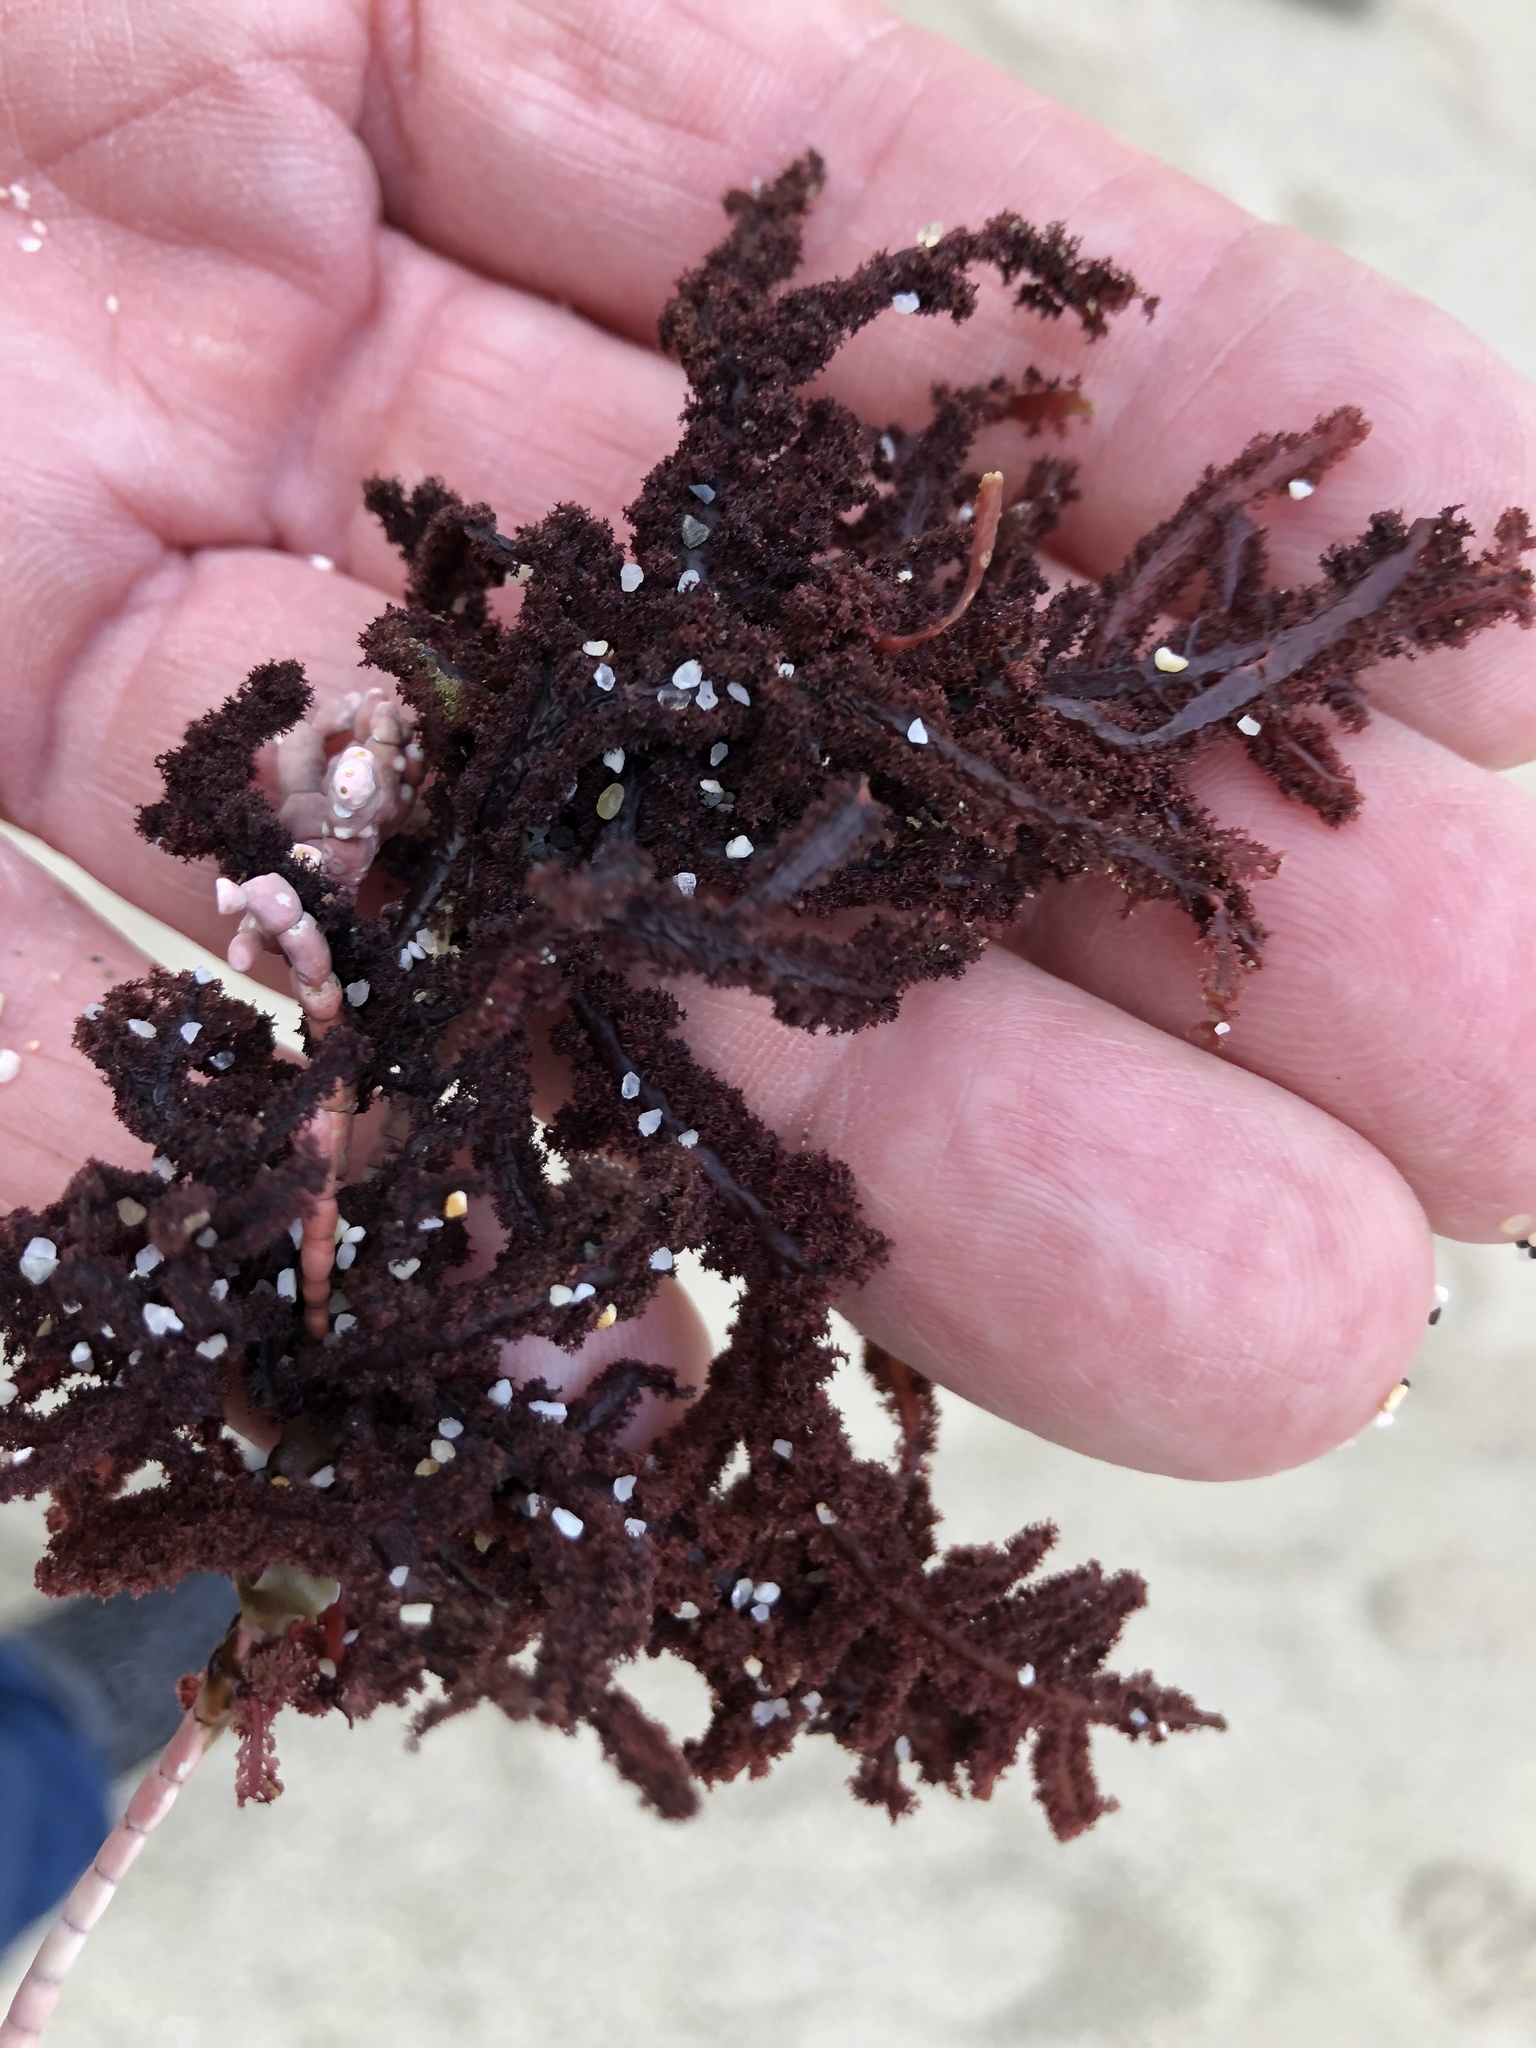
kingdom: Plantae
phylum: Rhodophyta
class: Florideophyceae
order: Ceramiales
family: Wrangeliaceae
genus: Neoptilota
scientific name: Neoptilota densa
